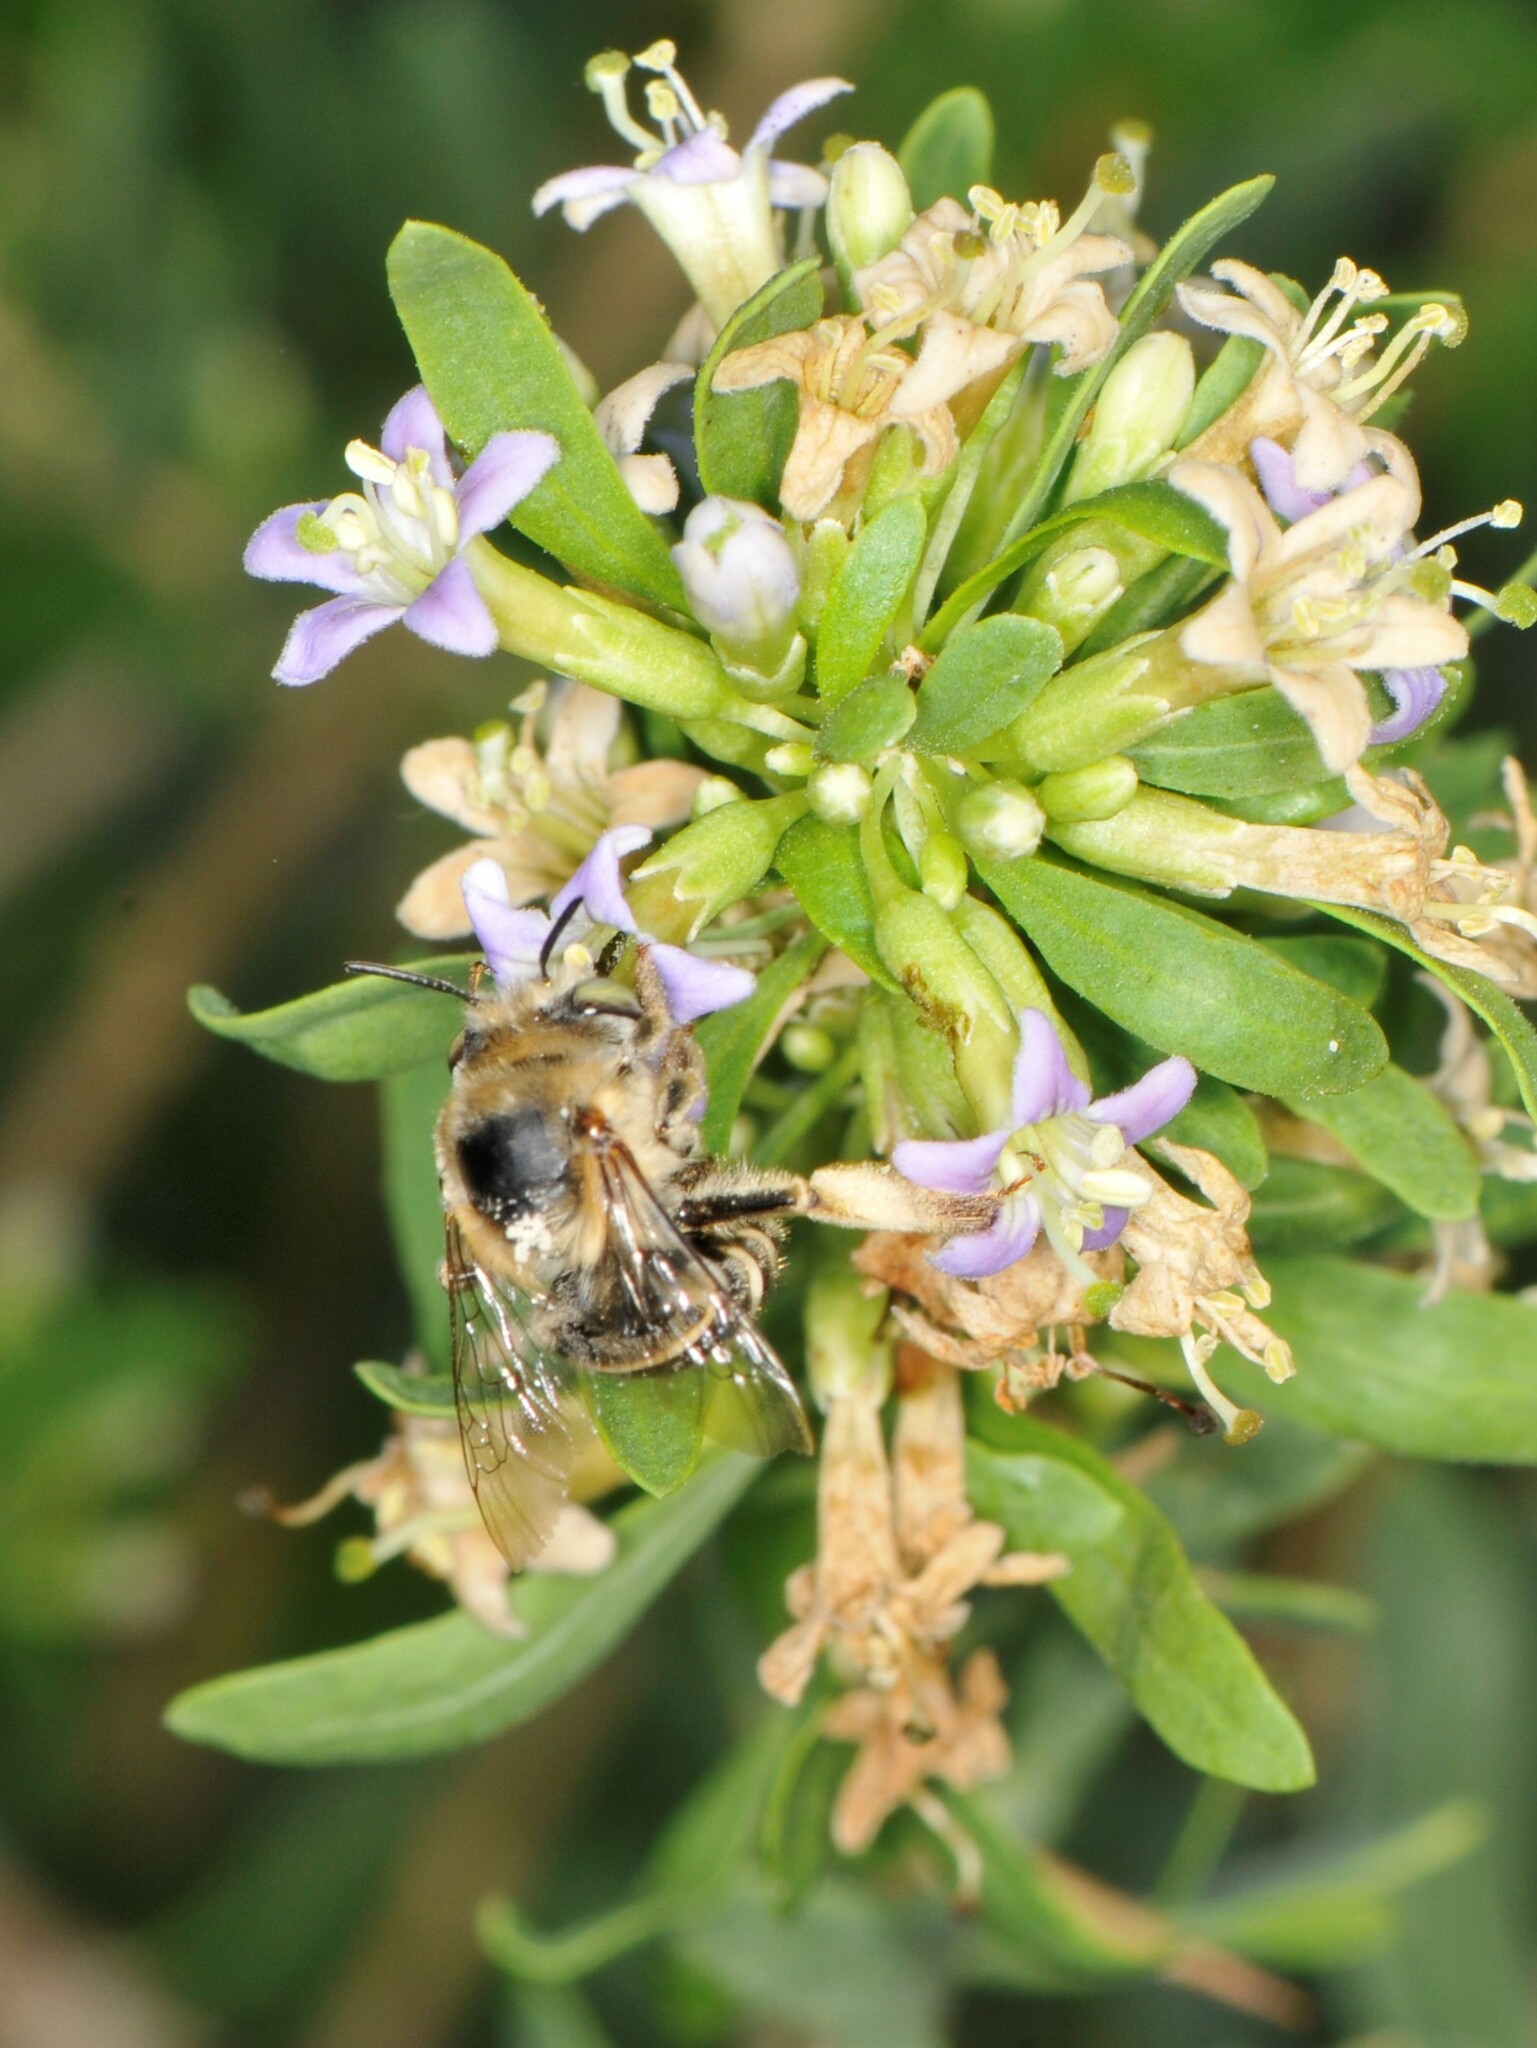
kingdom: Animalia
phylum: Arthropoda
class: Insecta
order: Hymenoptera
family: Apidae
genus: Anthophora
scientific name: Anthophora californica
